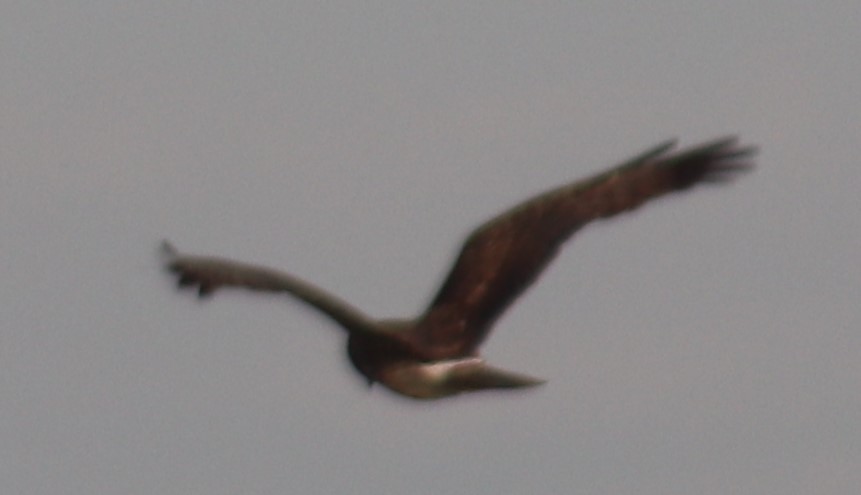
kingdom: Animalia
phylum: Chordata
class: Aves
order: Accipitriformes
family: Accipitridae
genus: Circus
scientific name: Circus cyaneus
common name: Hen harrier
